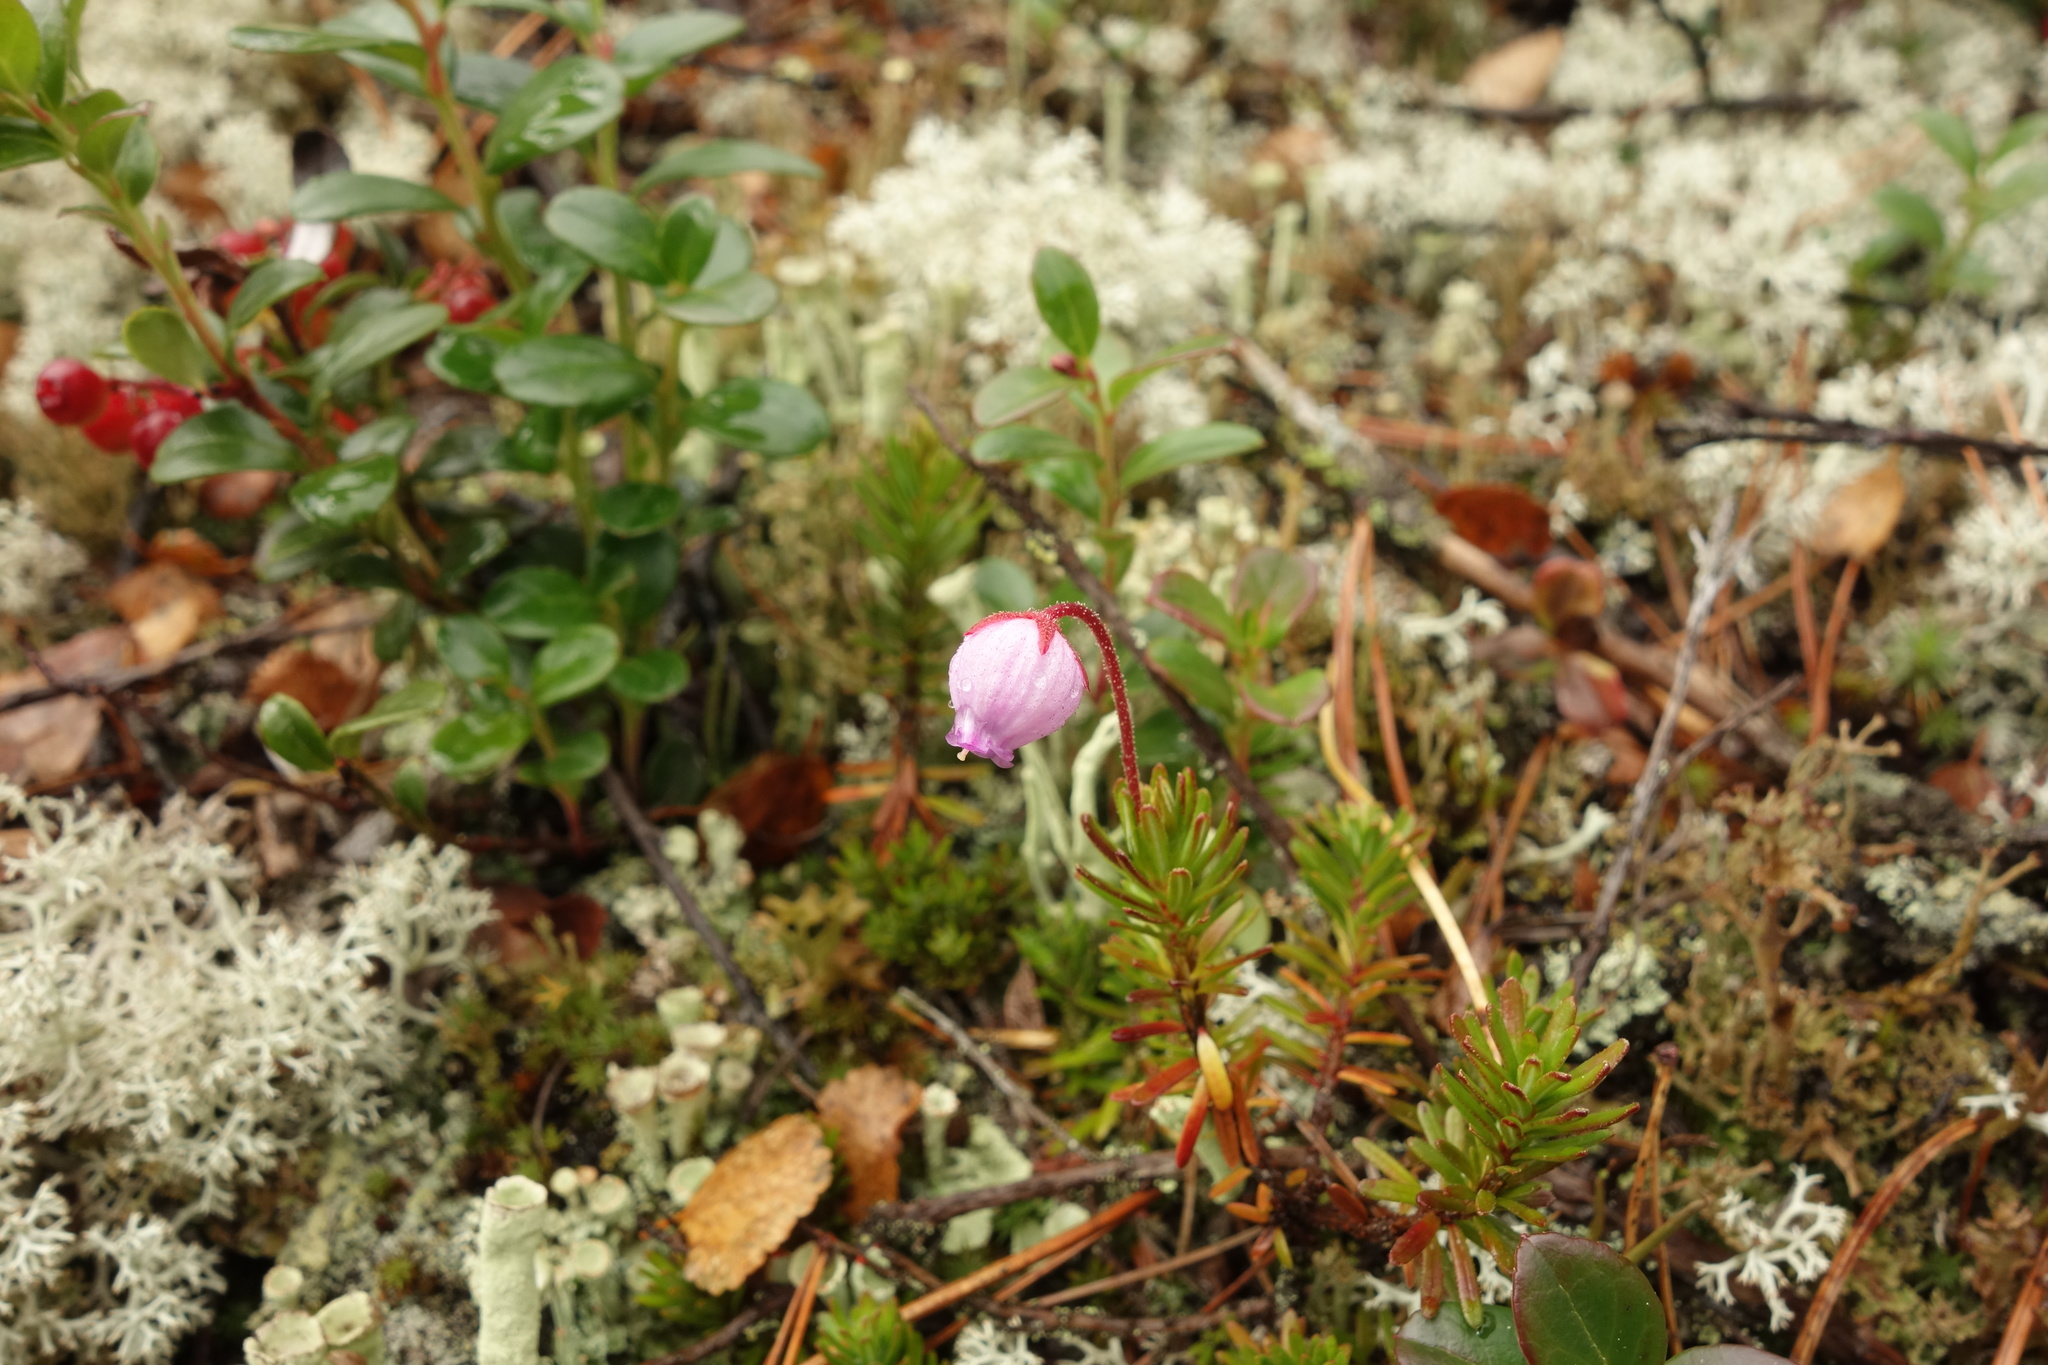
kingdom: Plantae
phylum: Tracheophyta
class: Magnoliopsida
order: Ericales
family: Ericaceae
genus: Phyllodoce
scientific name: Phyllodoce caerulea
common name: Blue heath
